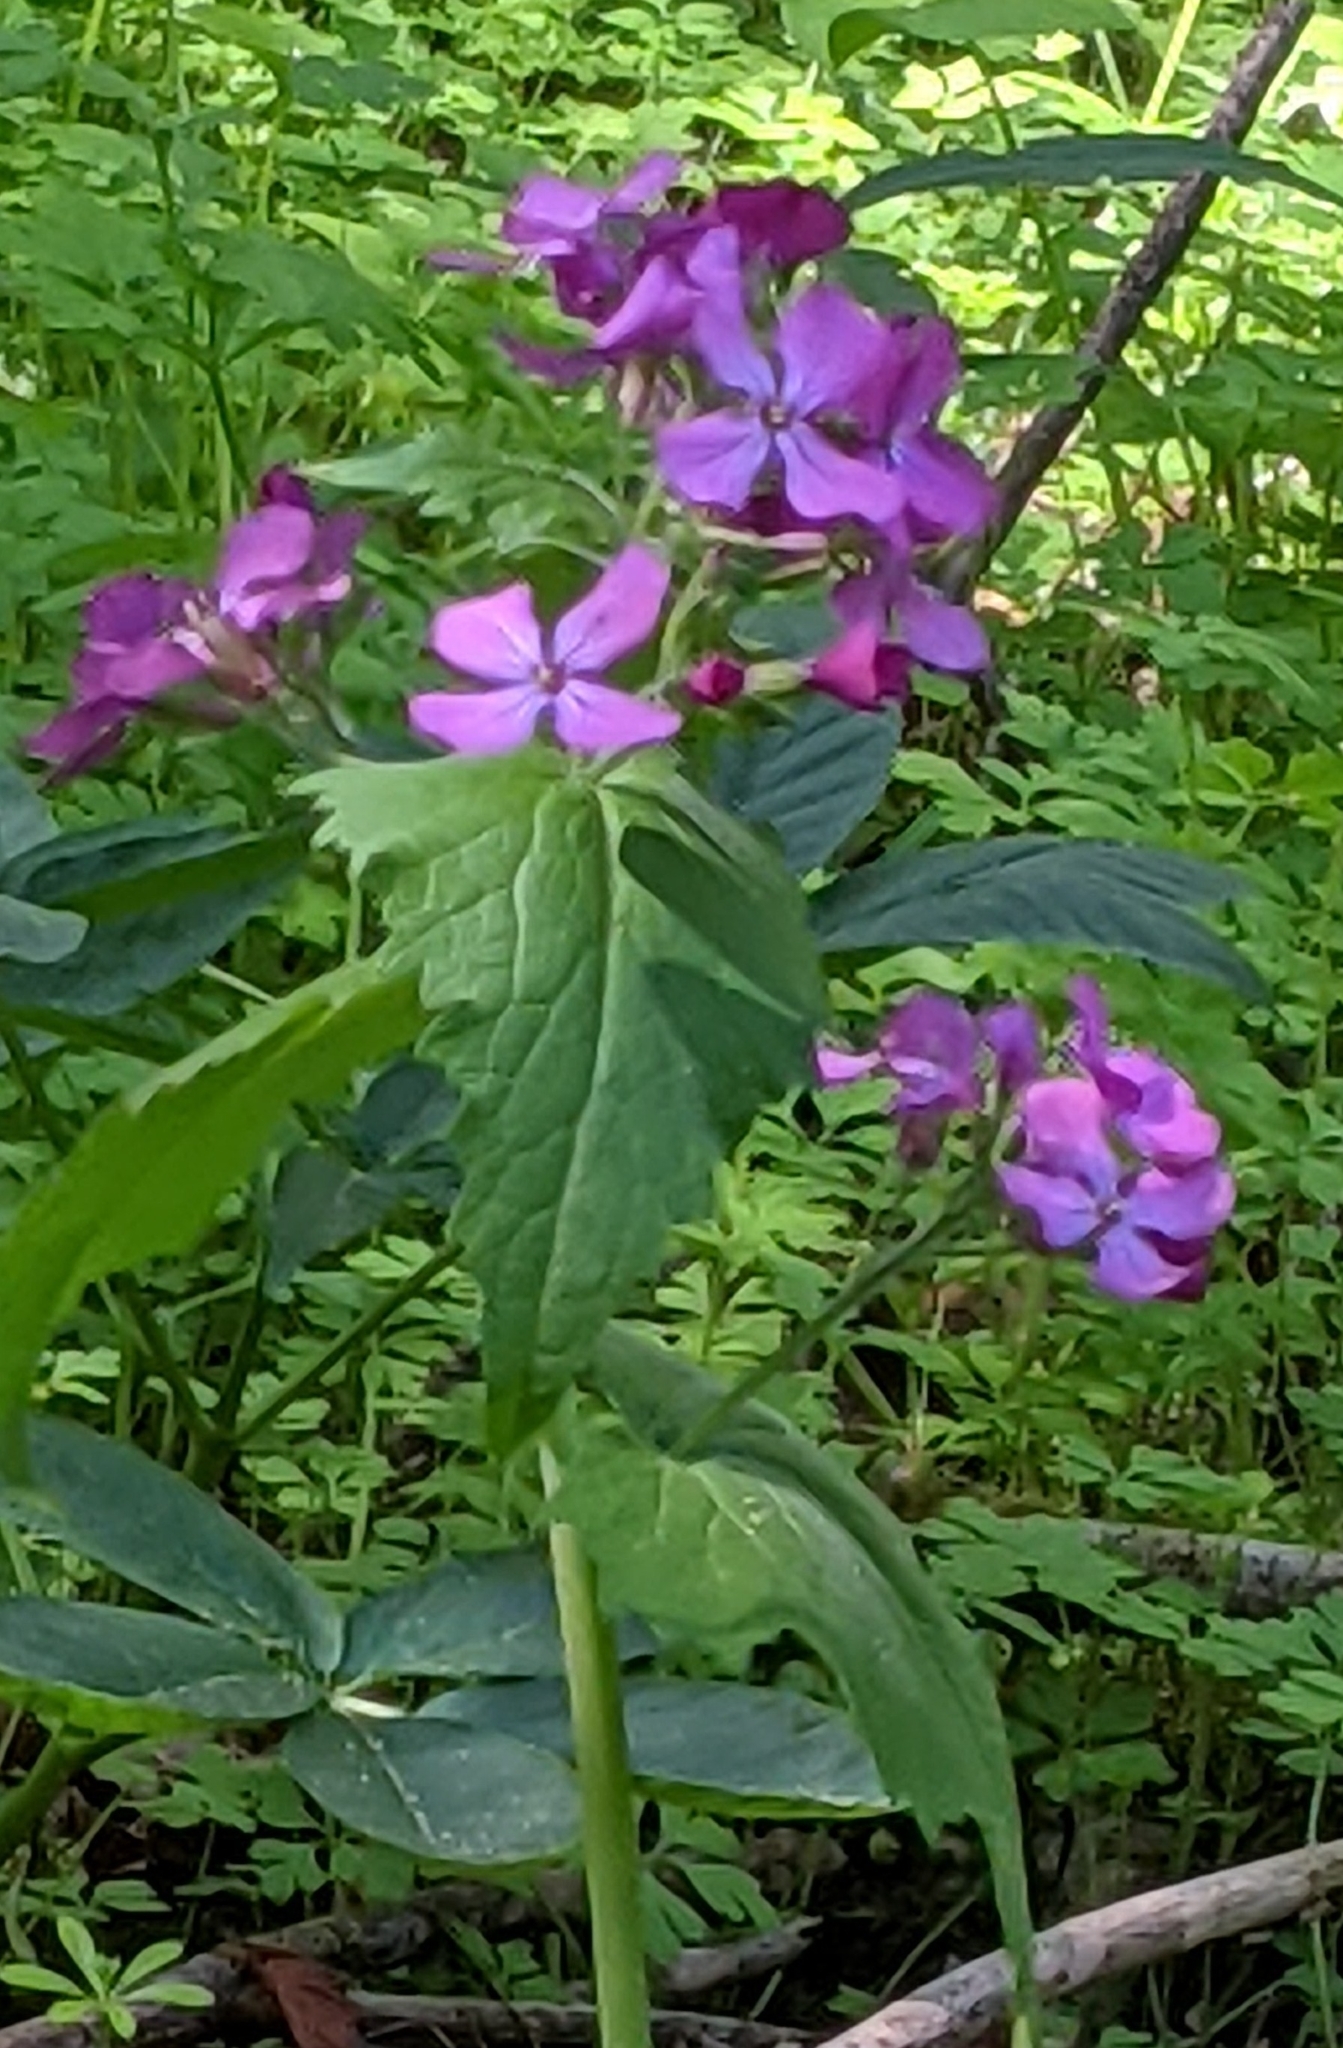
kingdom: Plantae
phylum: Tracheophyta
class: Magnoliopsida
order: Brassicales
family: Brassicaceae
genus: Lunaria
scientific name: Lunaria annua
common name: Honesty
